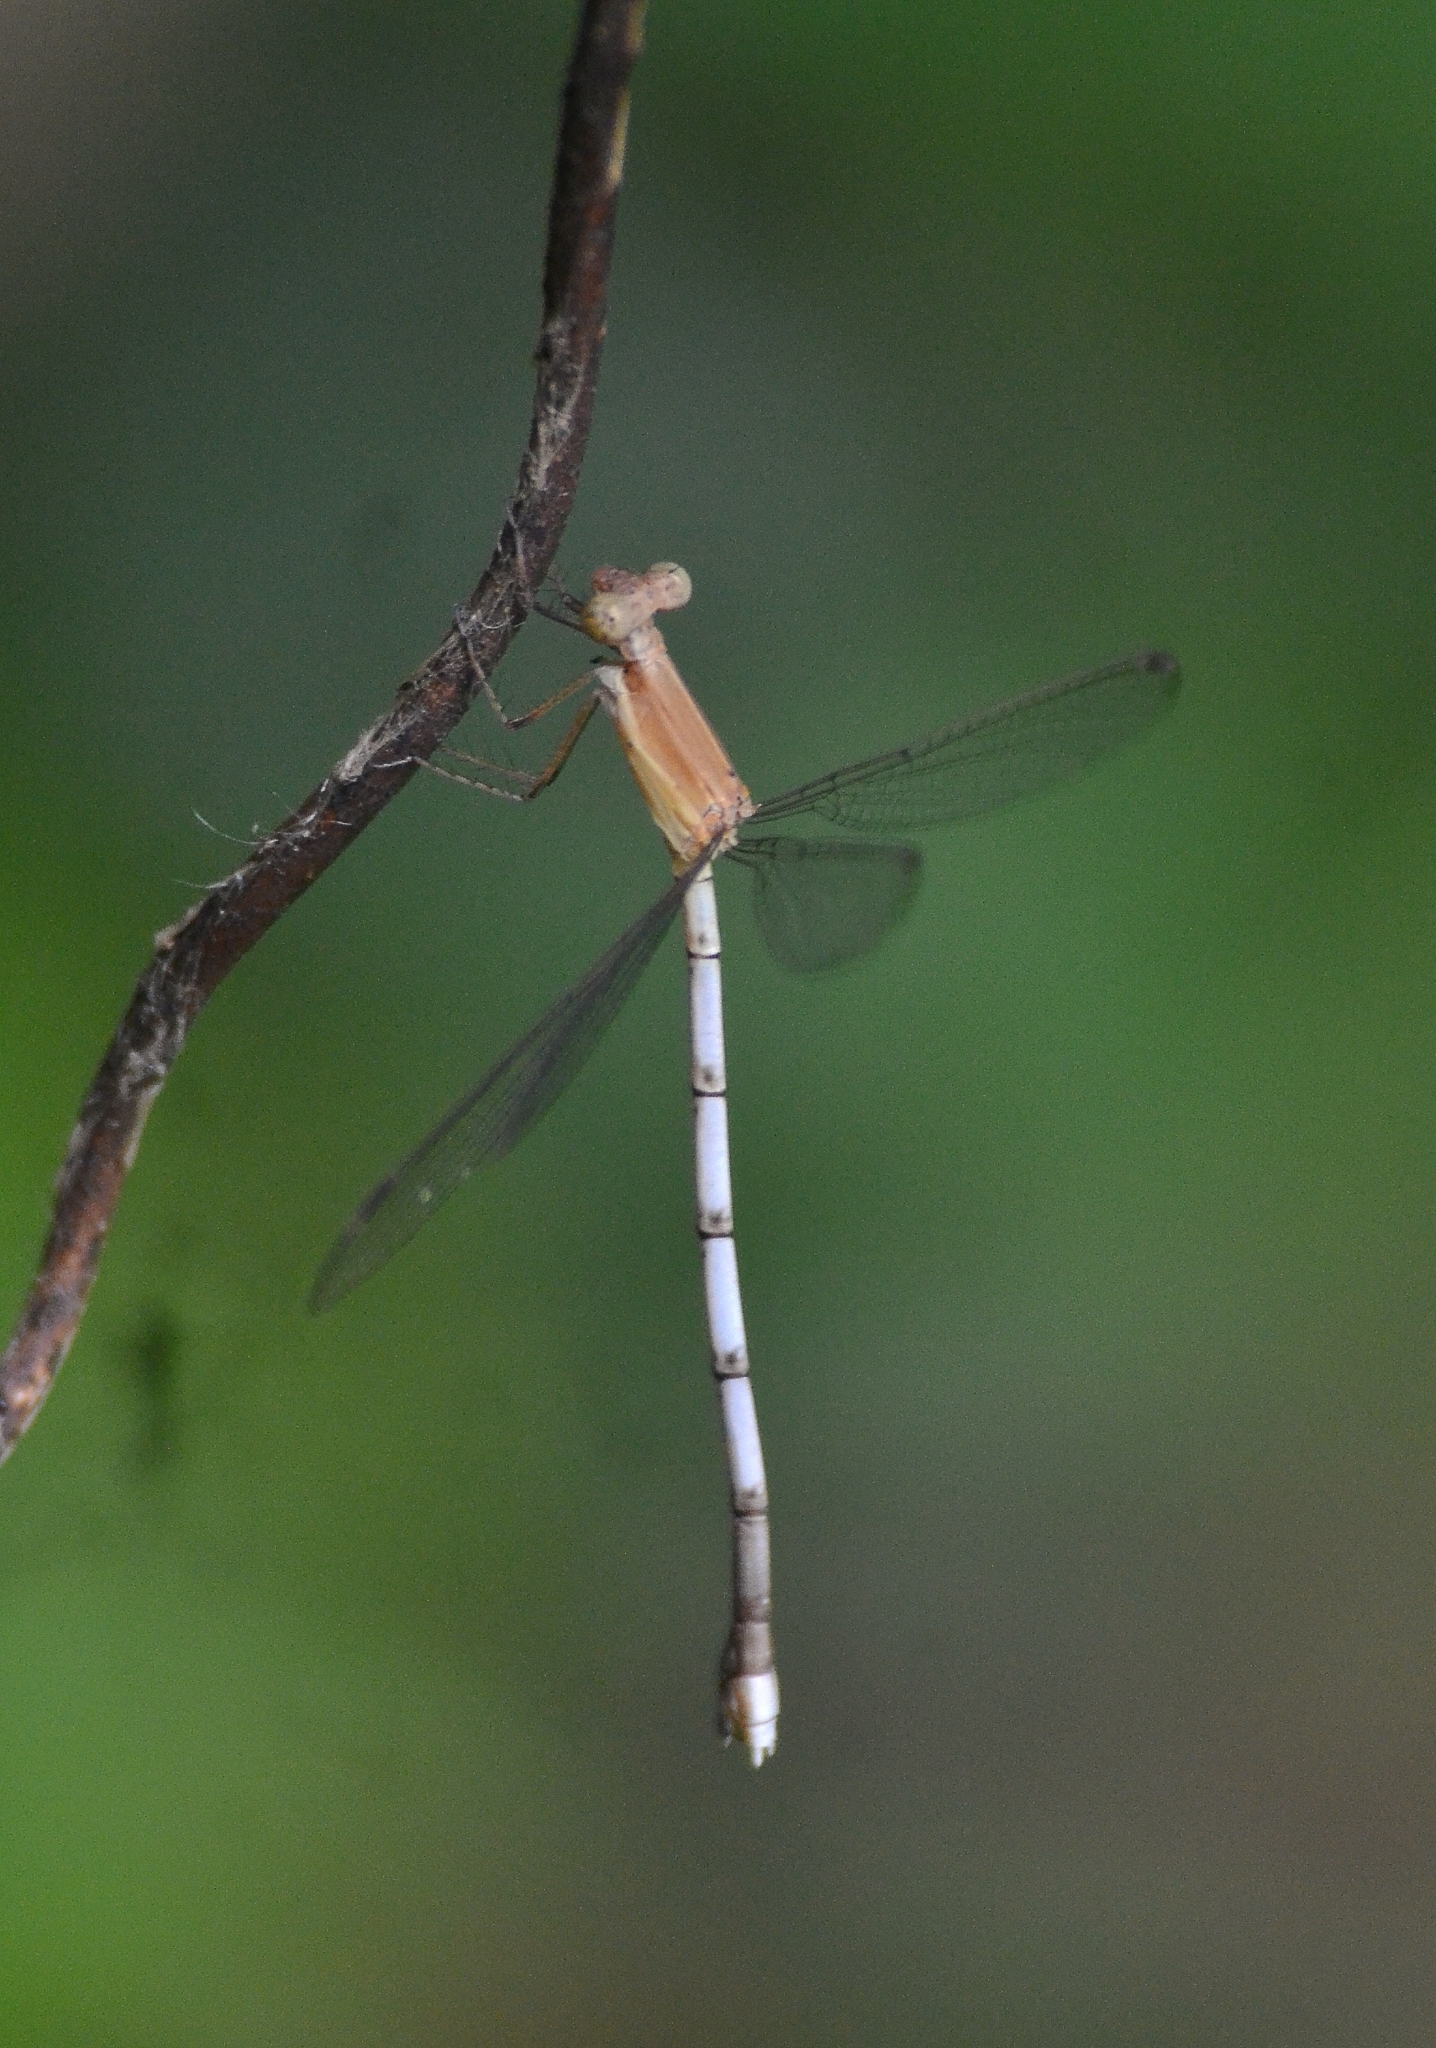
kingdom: Animalia
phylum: Arthropoda
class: Insecta
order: Odonata
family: Lestidae
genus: Lestes
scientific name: Lestes nodalis
